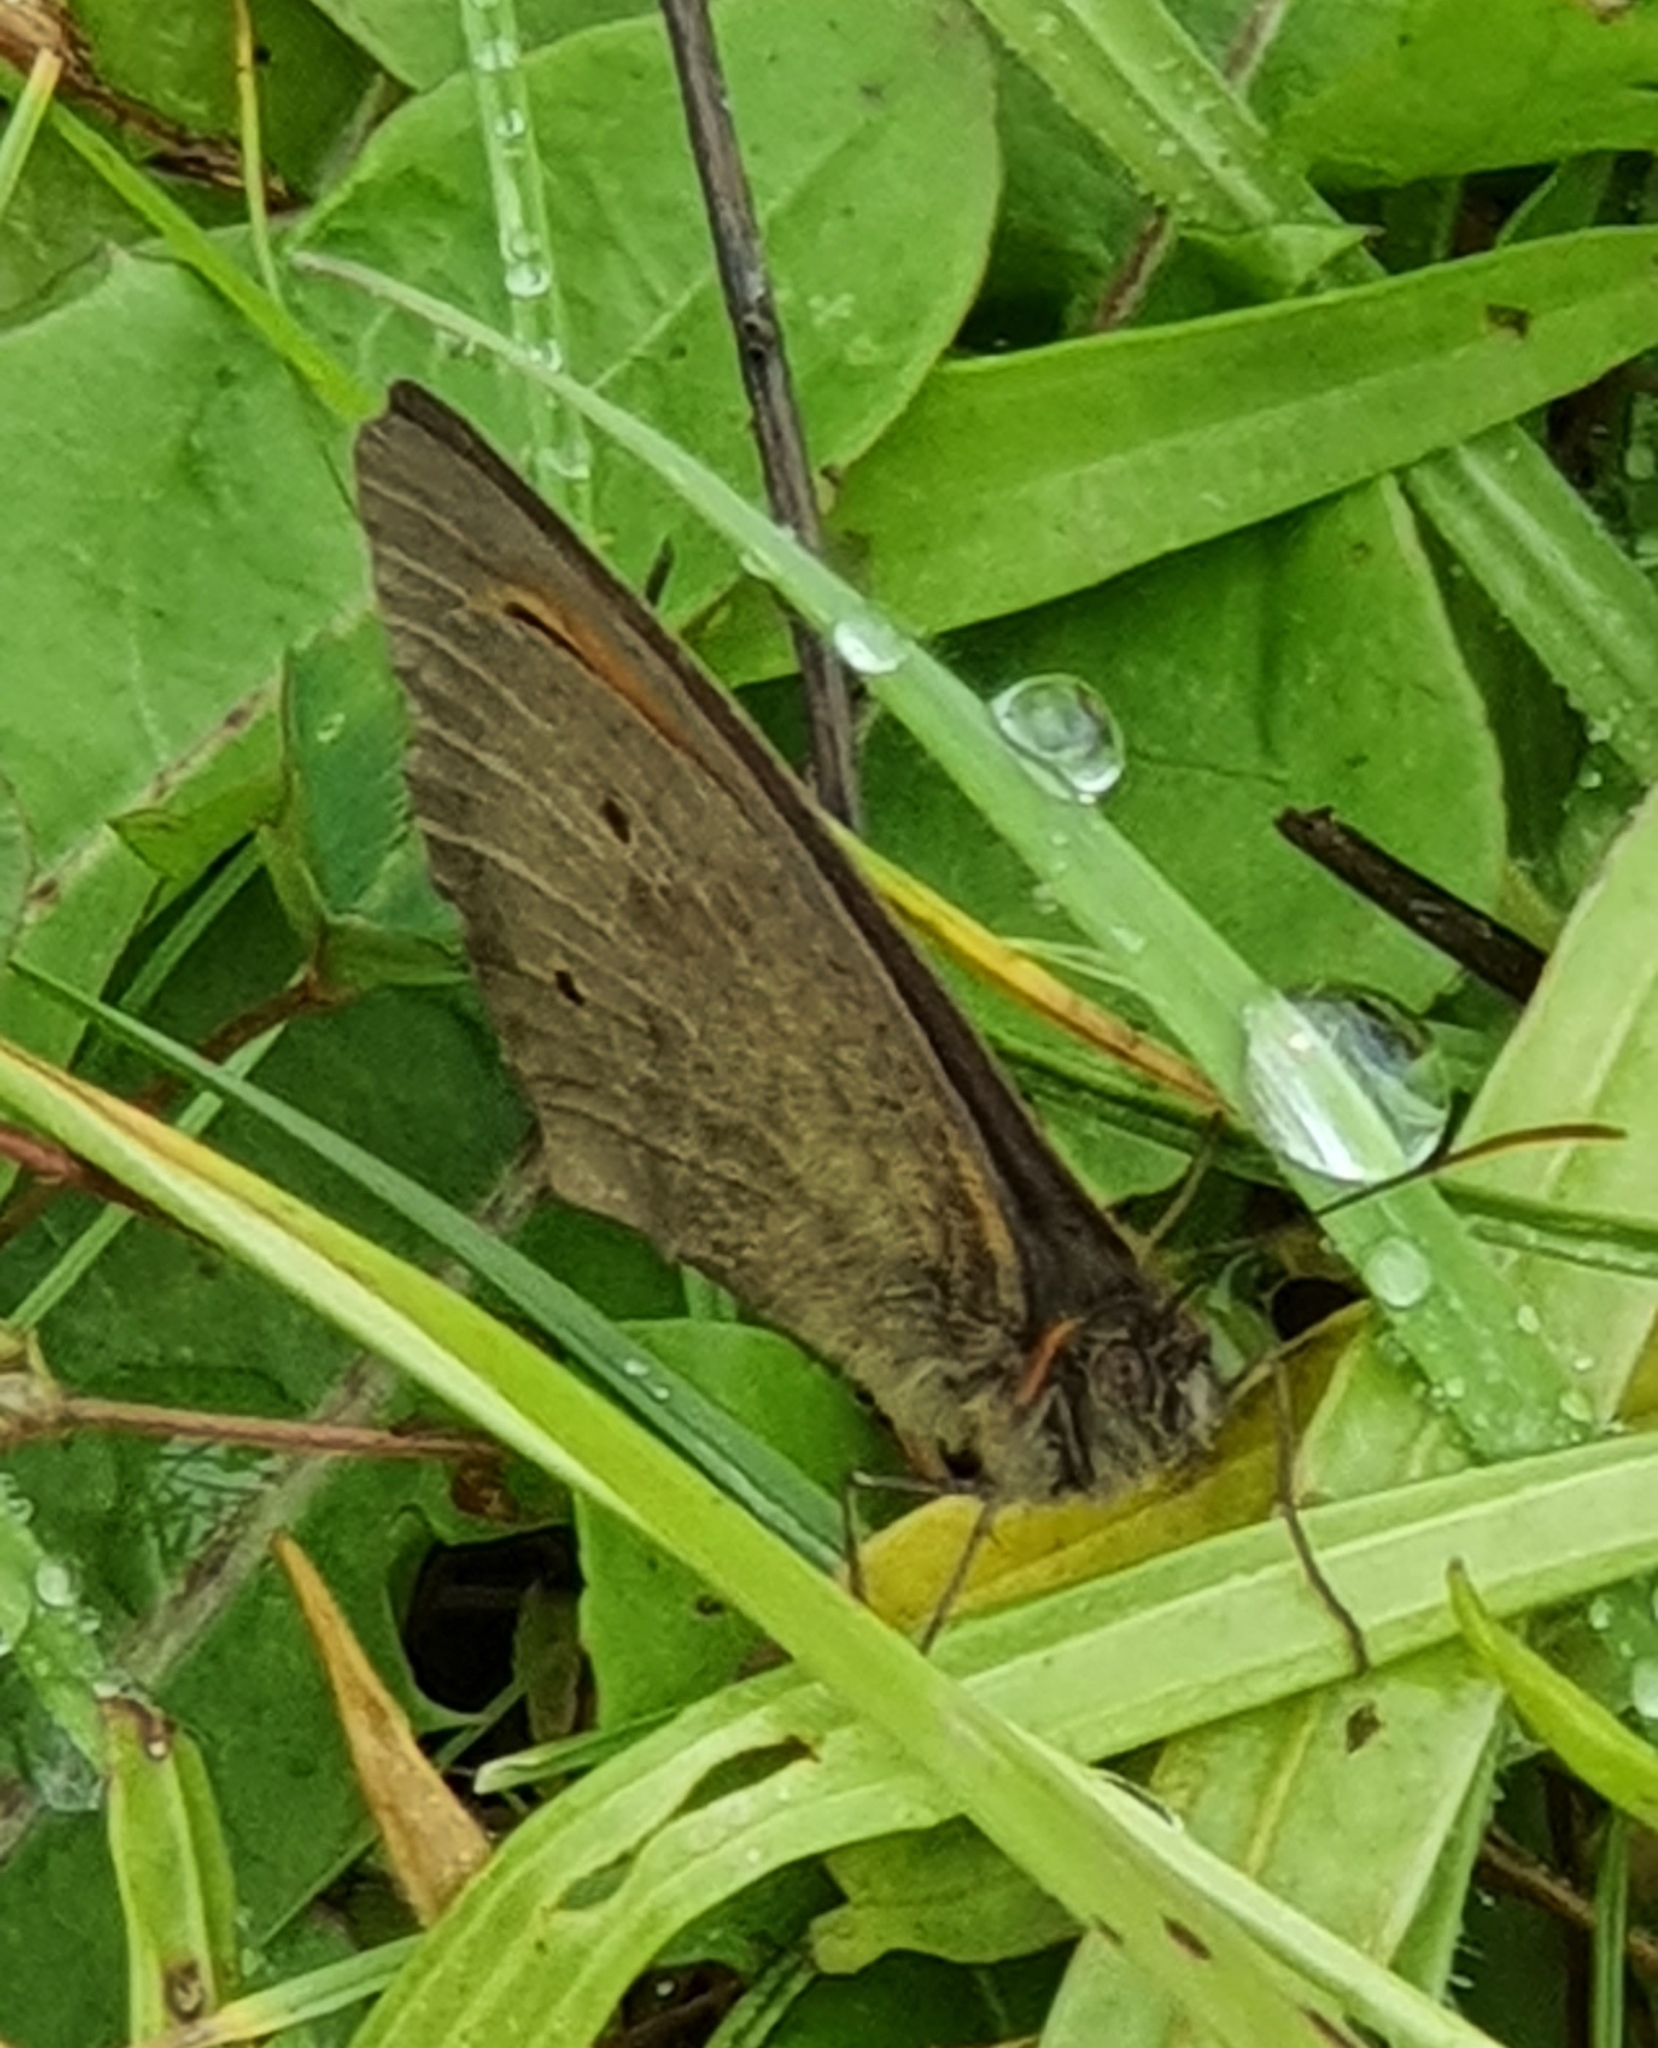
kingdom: Animalia
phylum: Arthropoda
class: Insecta
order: Lepidoptera
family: Nymphalidae
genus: Maniola
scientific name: Maniola jurtina
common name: Meadow brown
